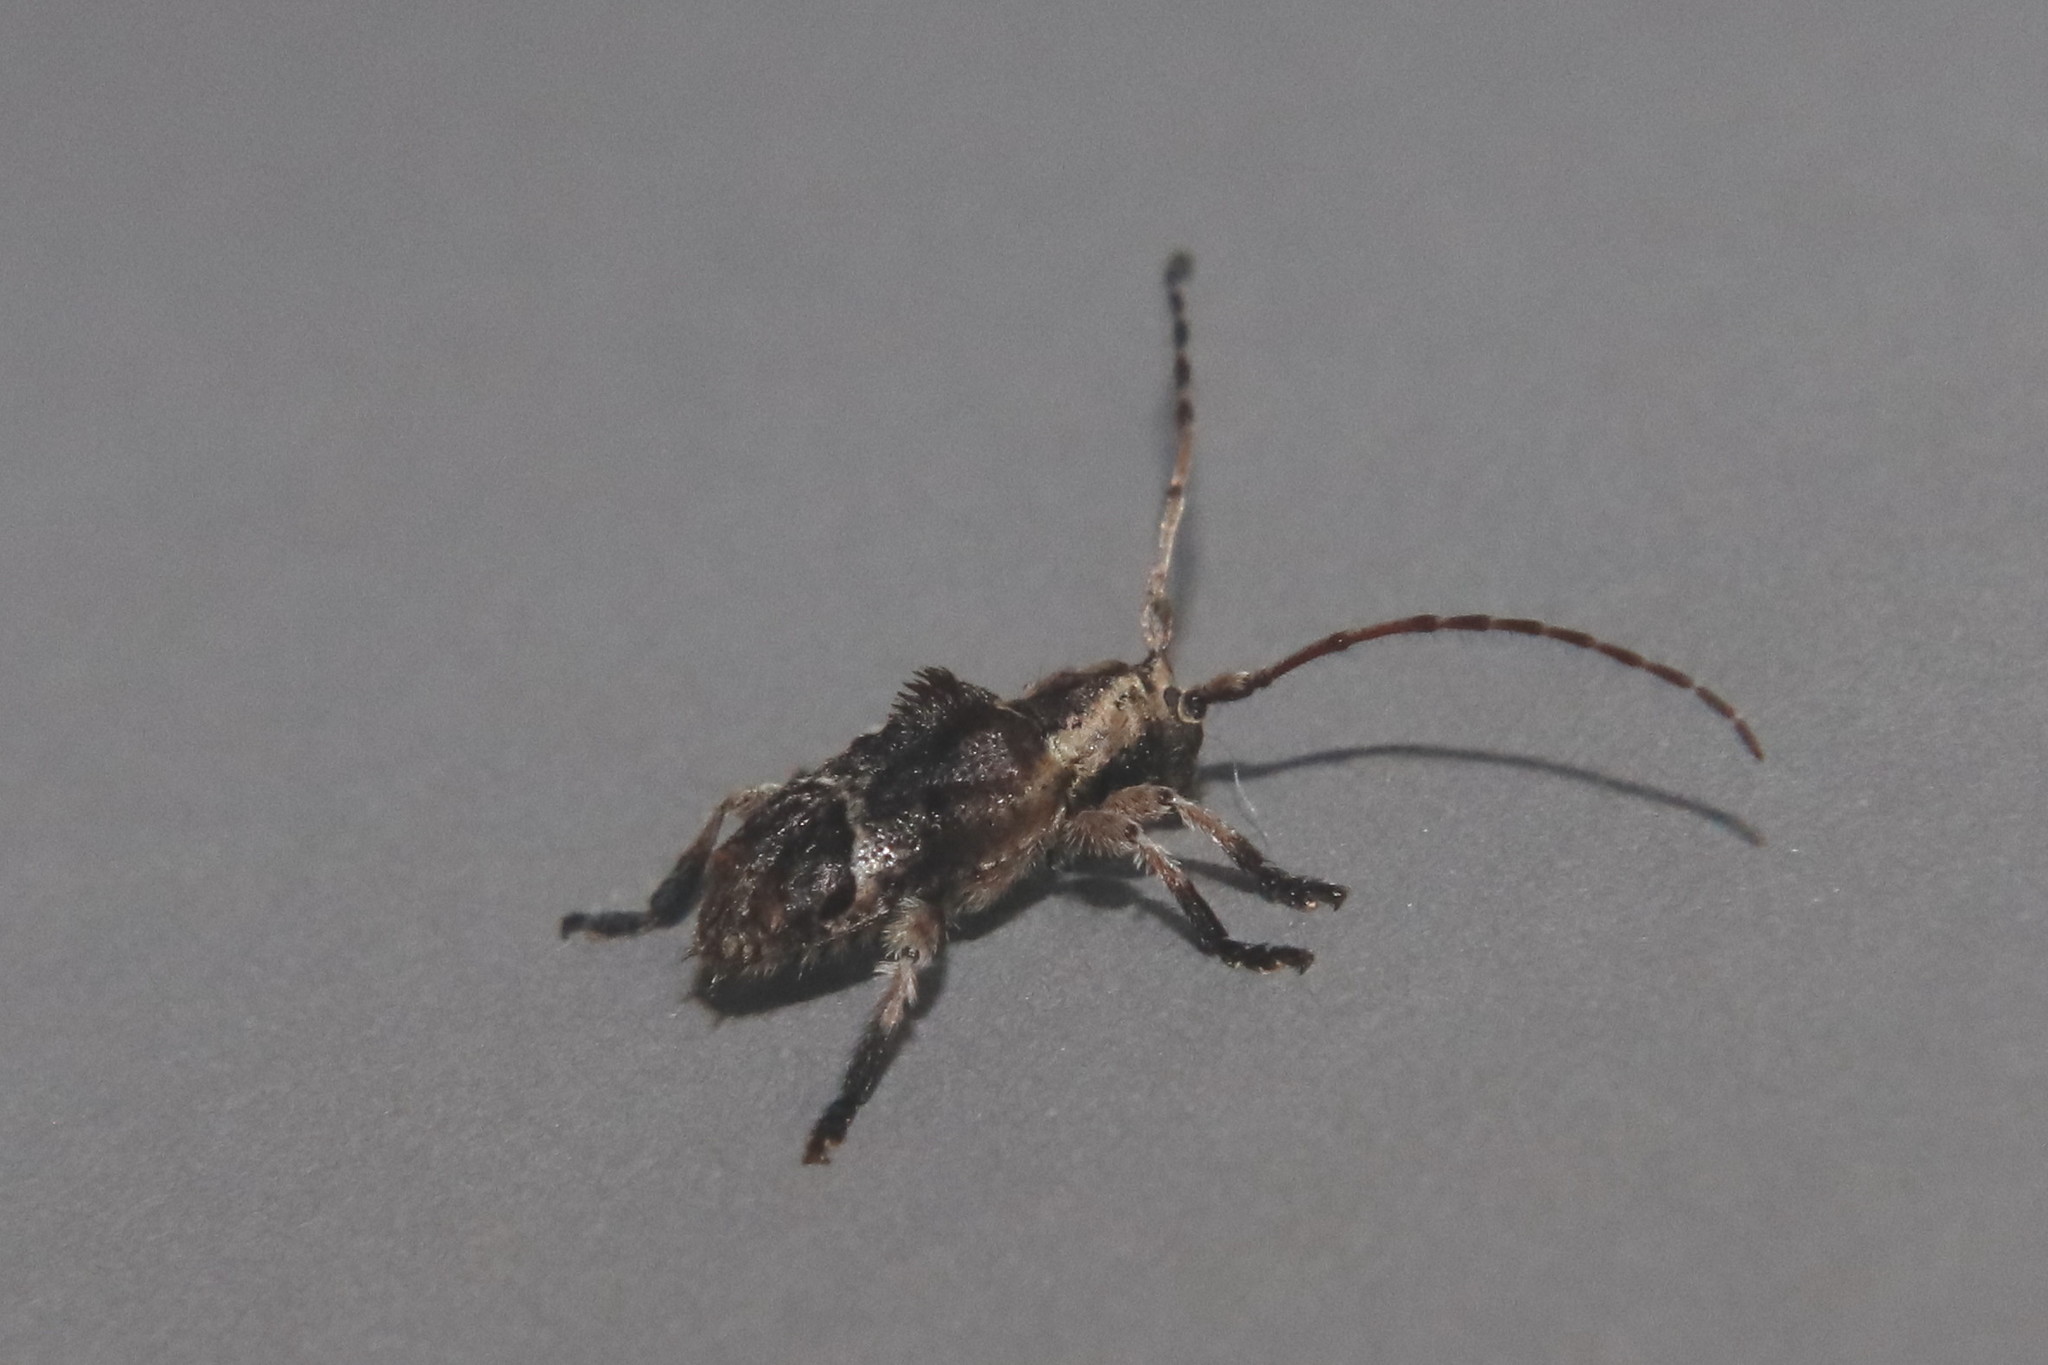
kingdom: Animalia
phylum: Arthropoda
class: Insecta
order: Coleoptera
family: Cerambycidae
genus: Hybolasius
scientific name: Hybolasius cristus
